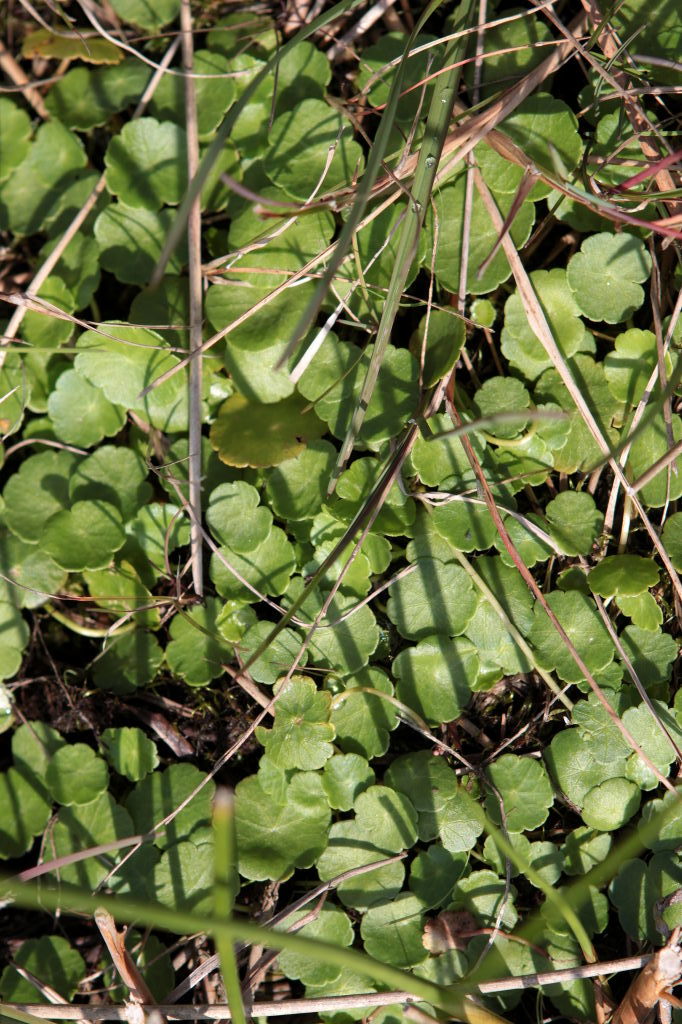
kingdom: Plantae
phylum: Tracheophyta
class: Magnoliopsida
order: Apiales
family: Araliaceae
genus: Hydrocotyle
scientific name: Hydrocotyle vulgaris
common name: Marsh pennywort
